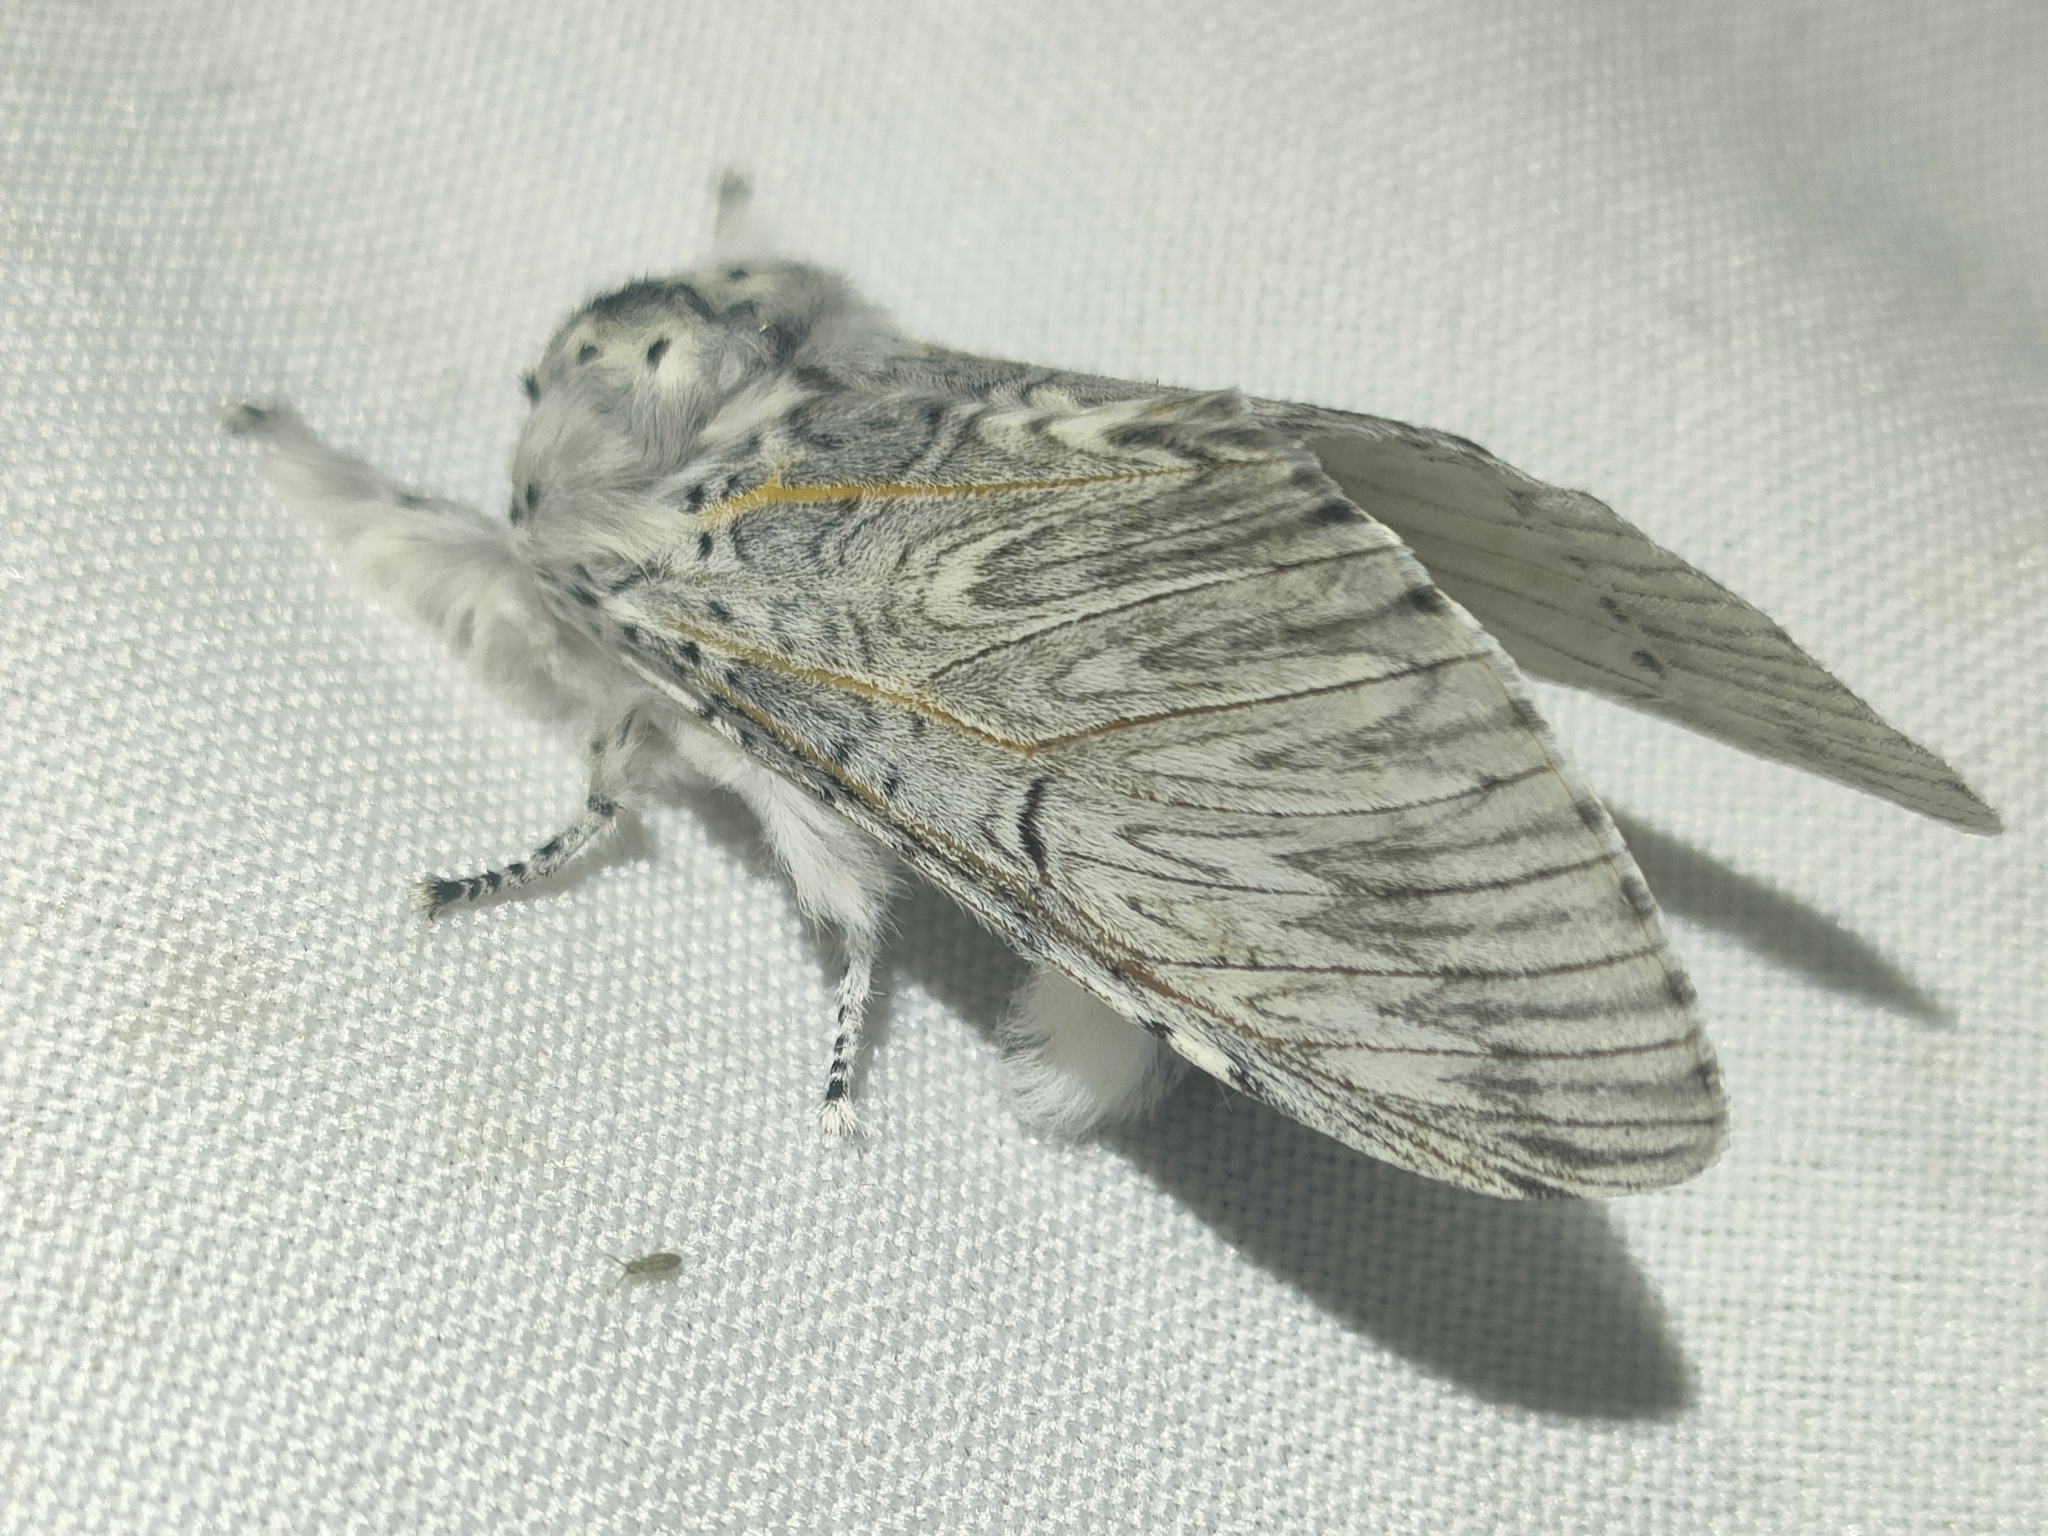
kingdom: Animalia
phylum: Arthropoda
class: Insecta
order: Lepidoptera
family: Notodontidae
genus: Cerura
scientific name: Cerura iberica
